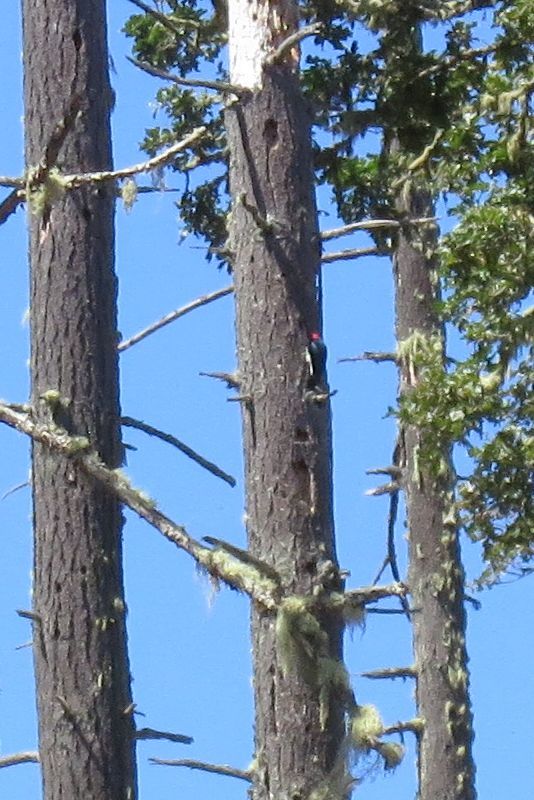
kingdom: Animalia
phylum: Chordata
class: Aves
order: Piciformes
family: Picidae
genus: Melanerpes
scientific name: Melanerpes formicivorus
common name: Acorn woodpecker
